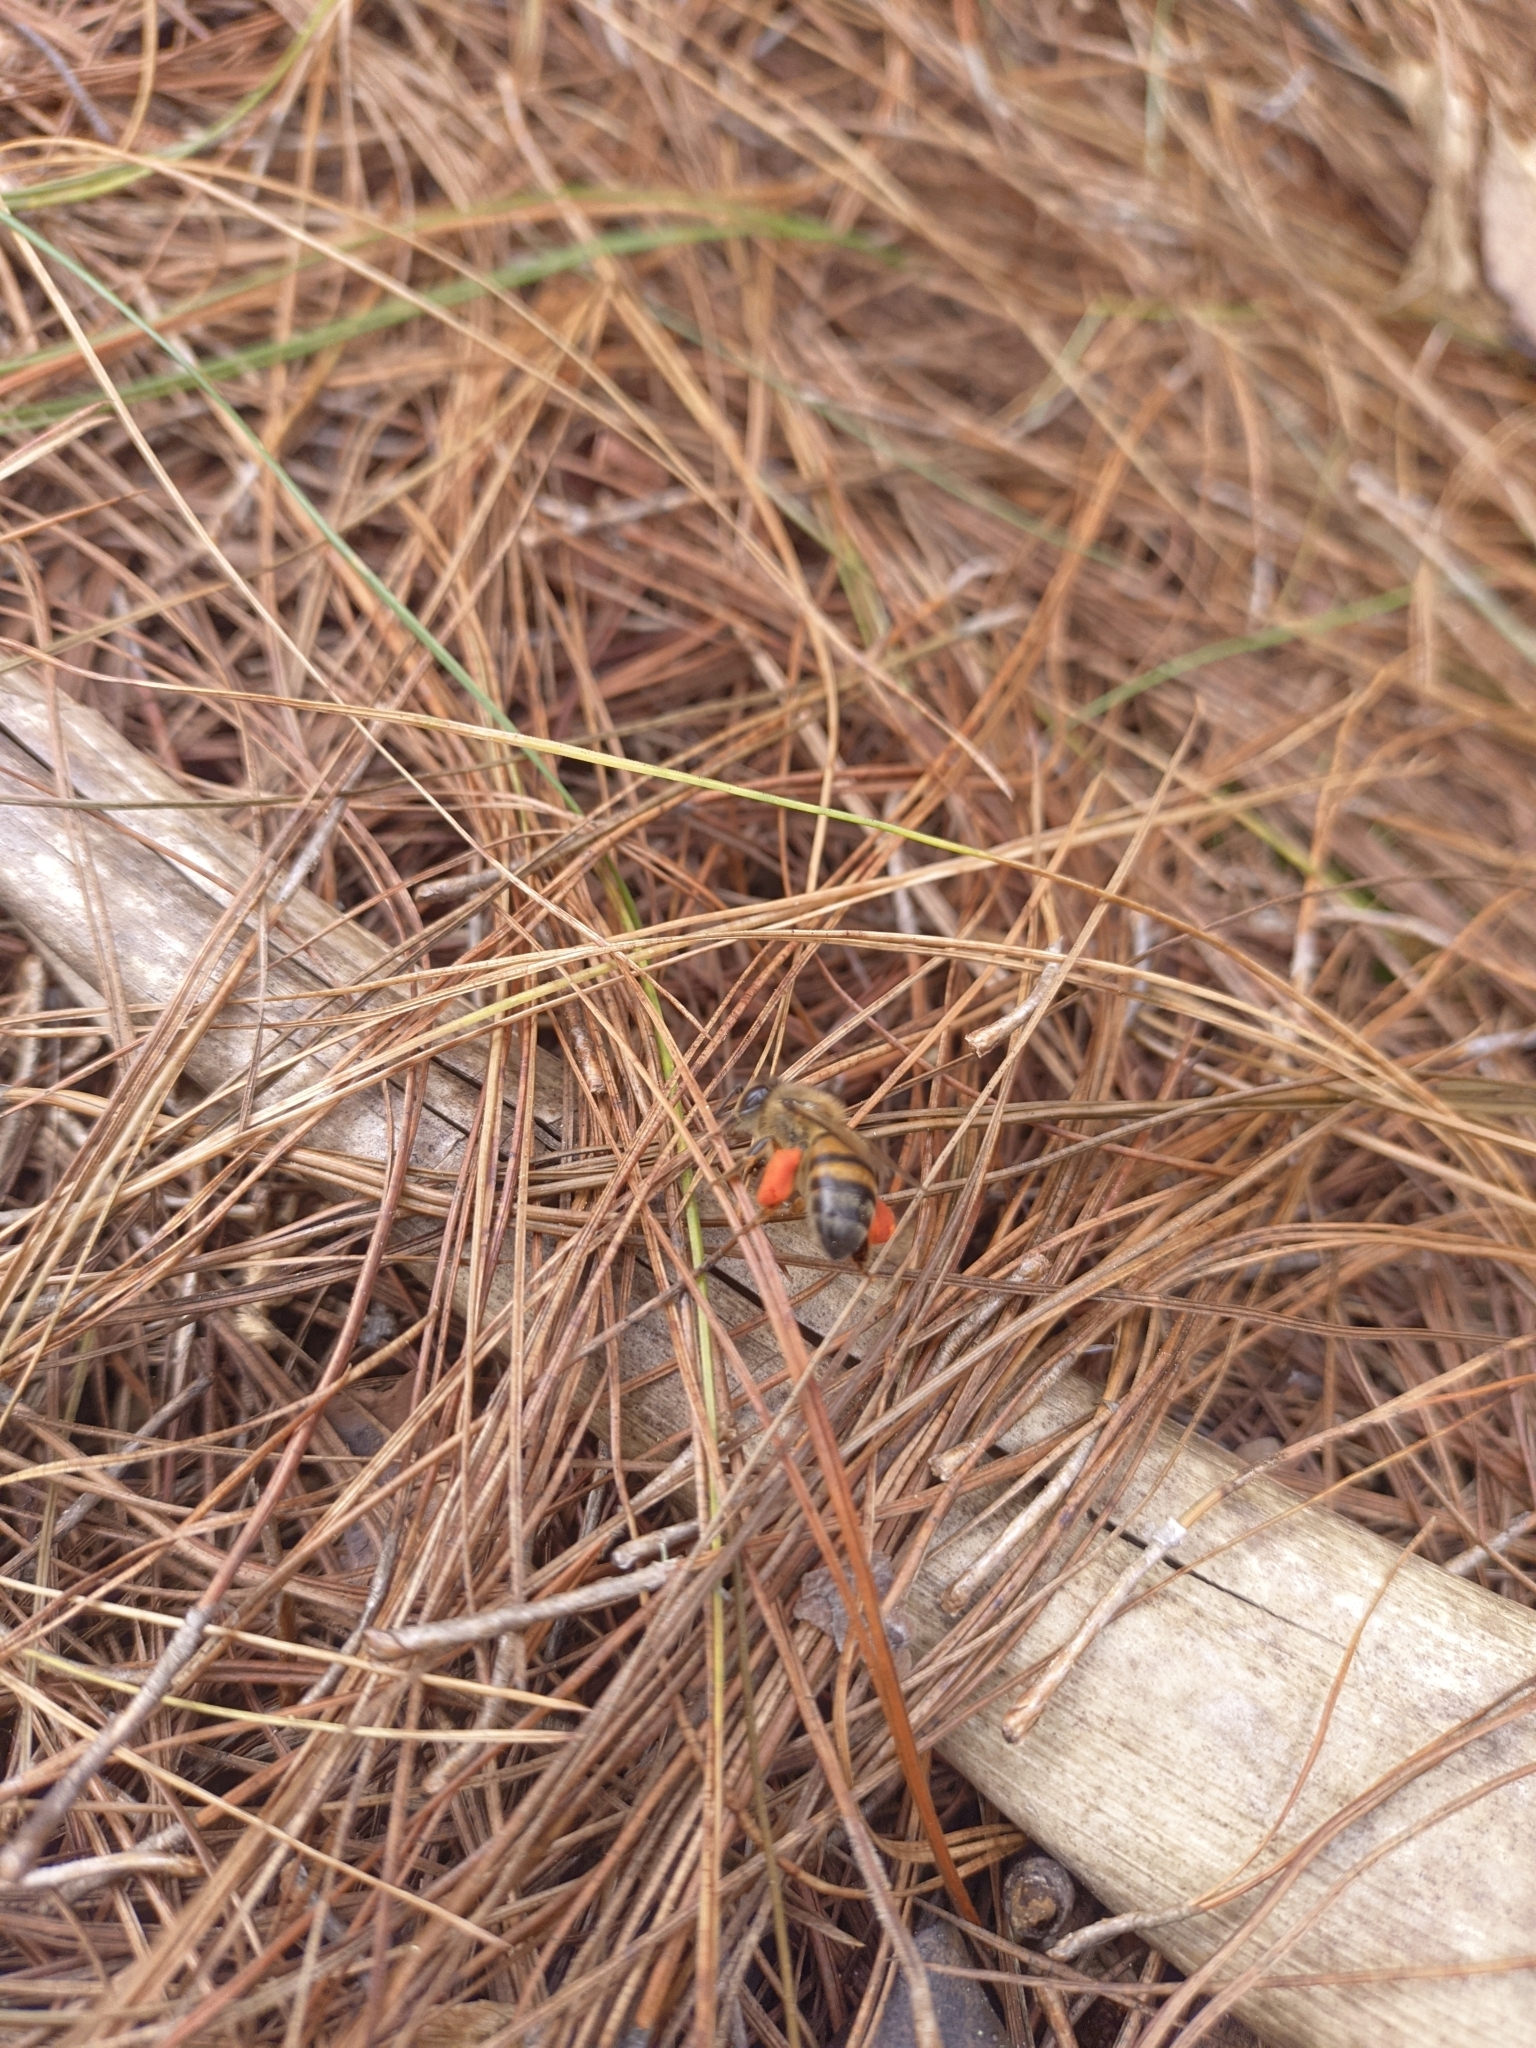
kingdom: Animalia
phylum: Arthropoda
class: Insecta
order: Hymenoptera
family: Apidae
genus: Apis
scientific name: Apis mellifera
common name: Honey bee
